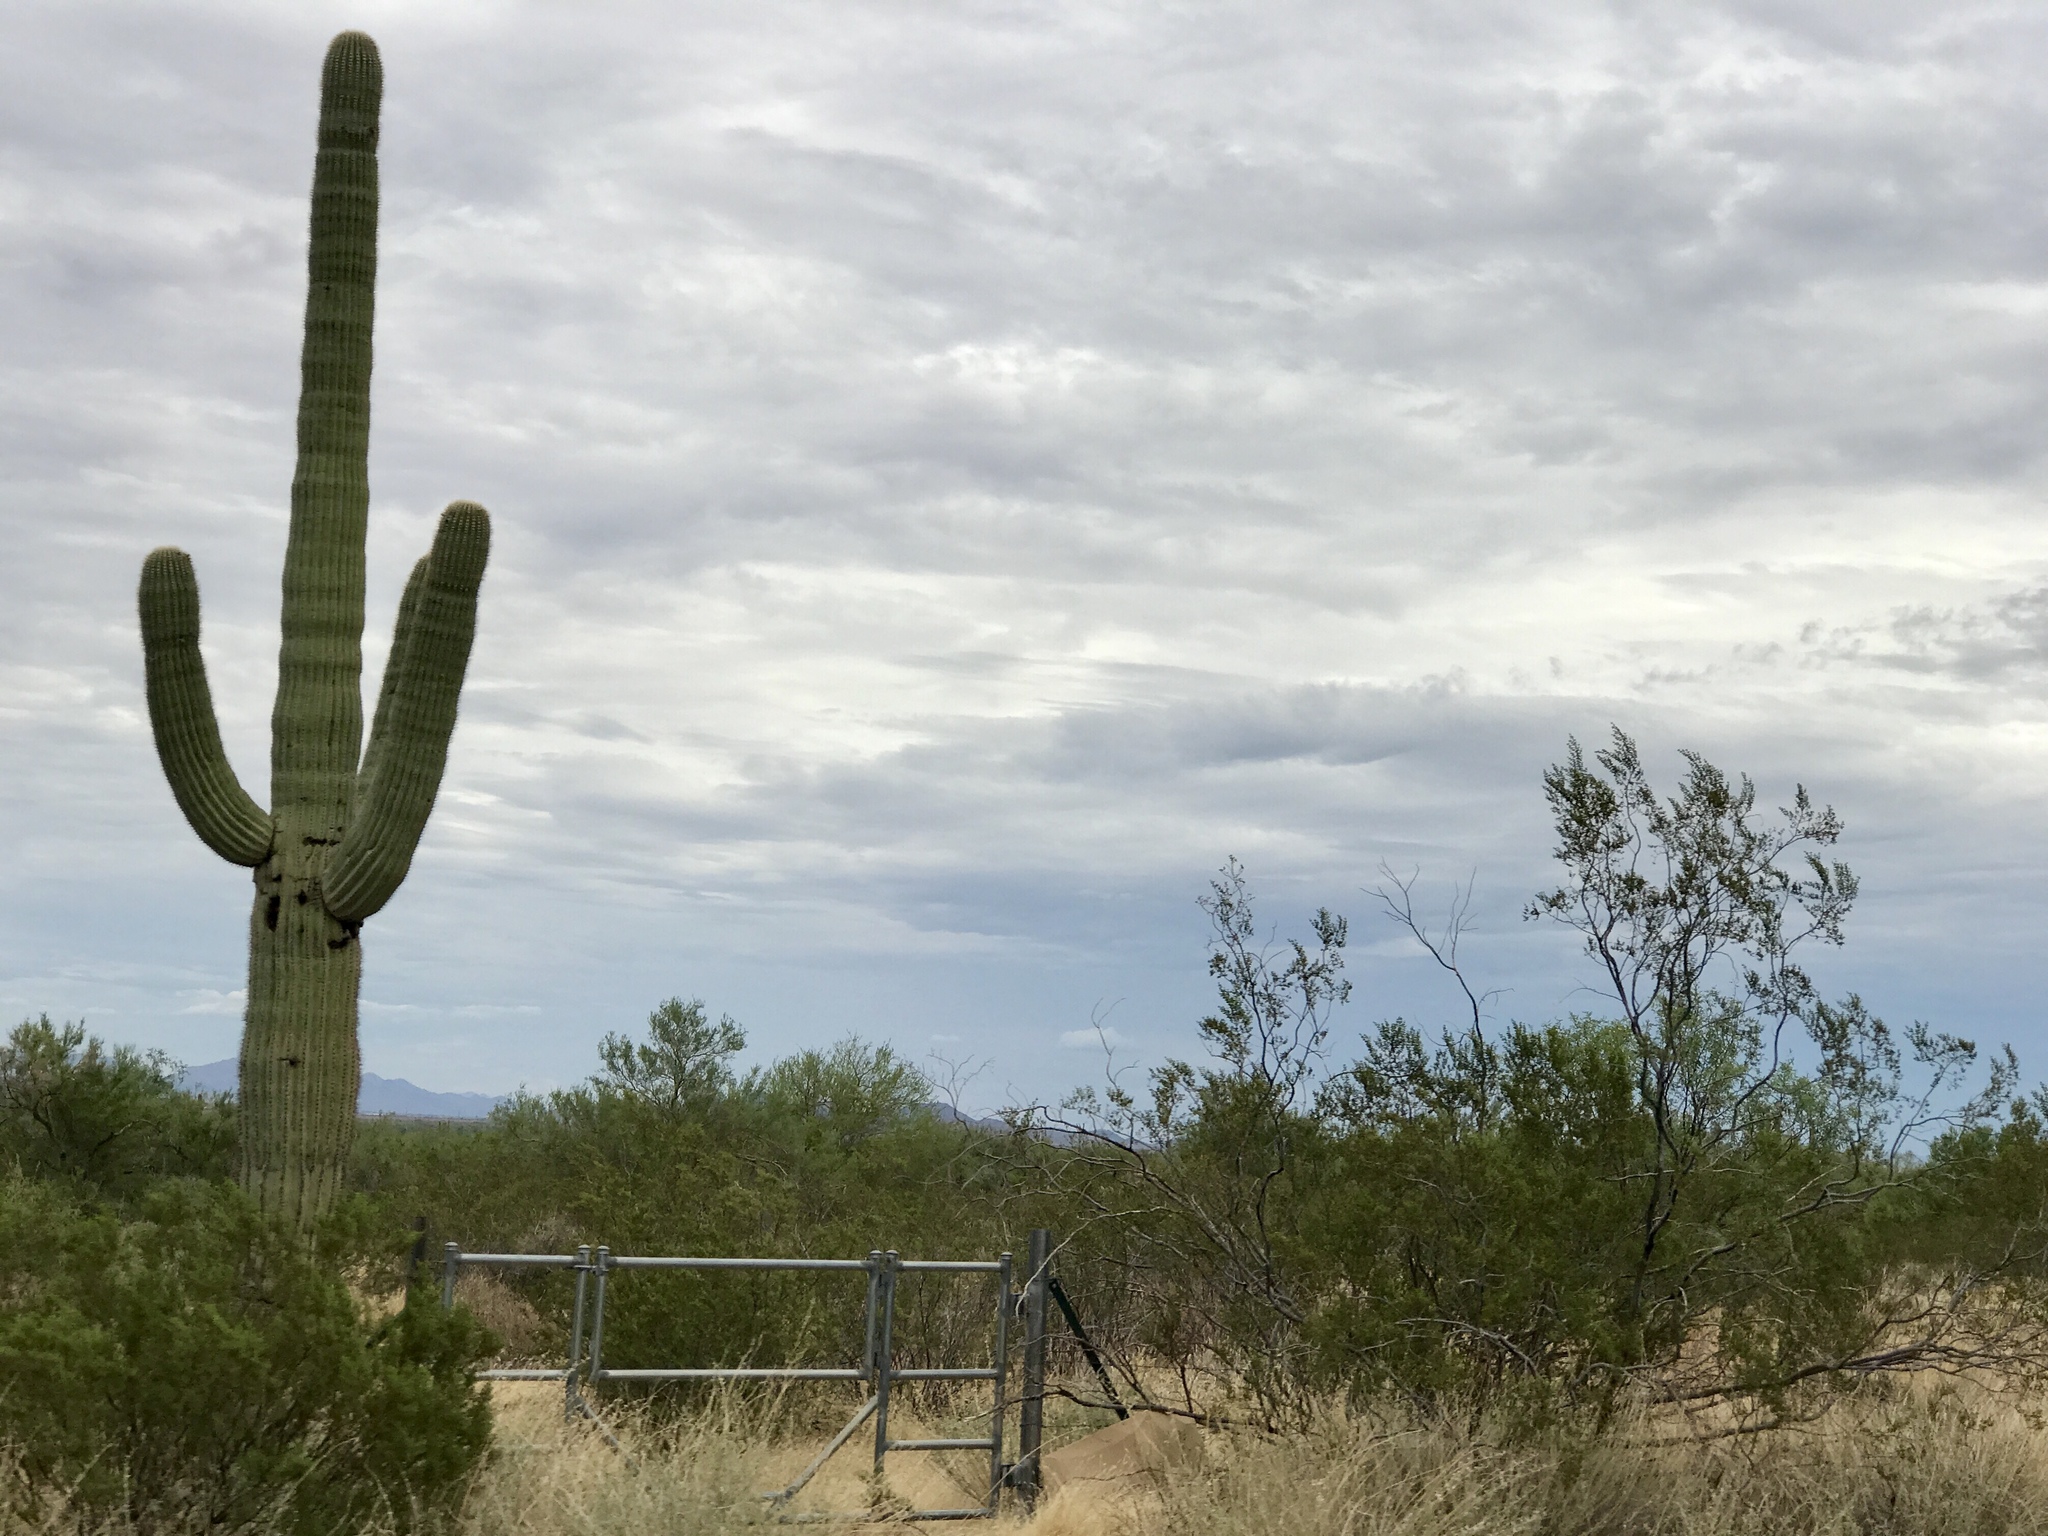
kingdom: Plantae
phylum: Tracheophyta
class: Magnoliopsida
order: Caryophyllales
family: Cactaceae
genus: Carnegiea
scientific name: Carnegiea gigantea
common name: Saguaro
